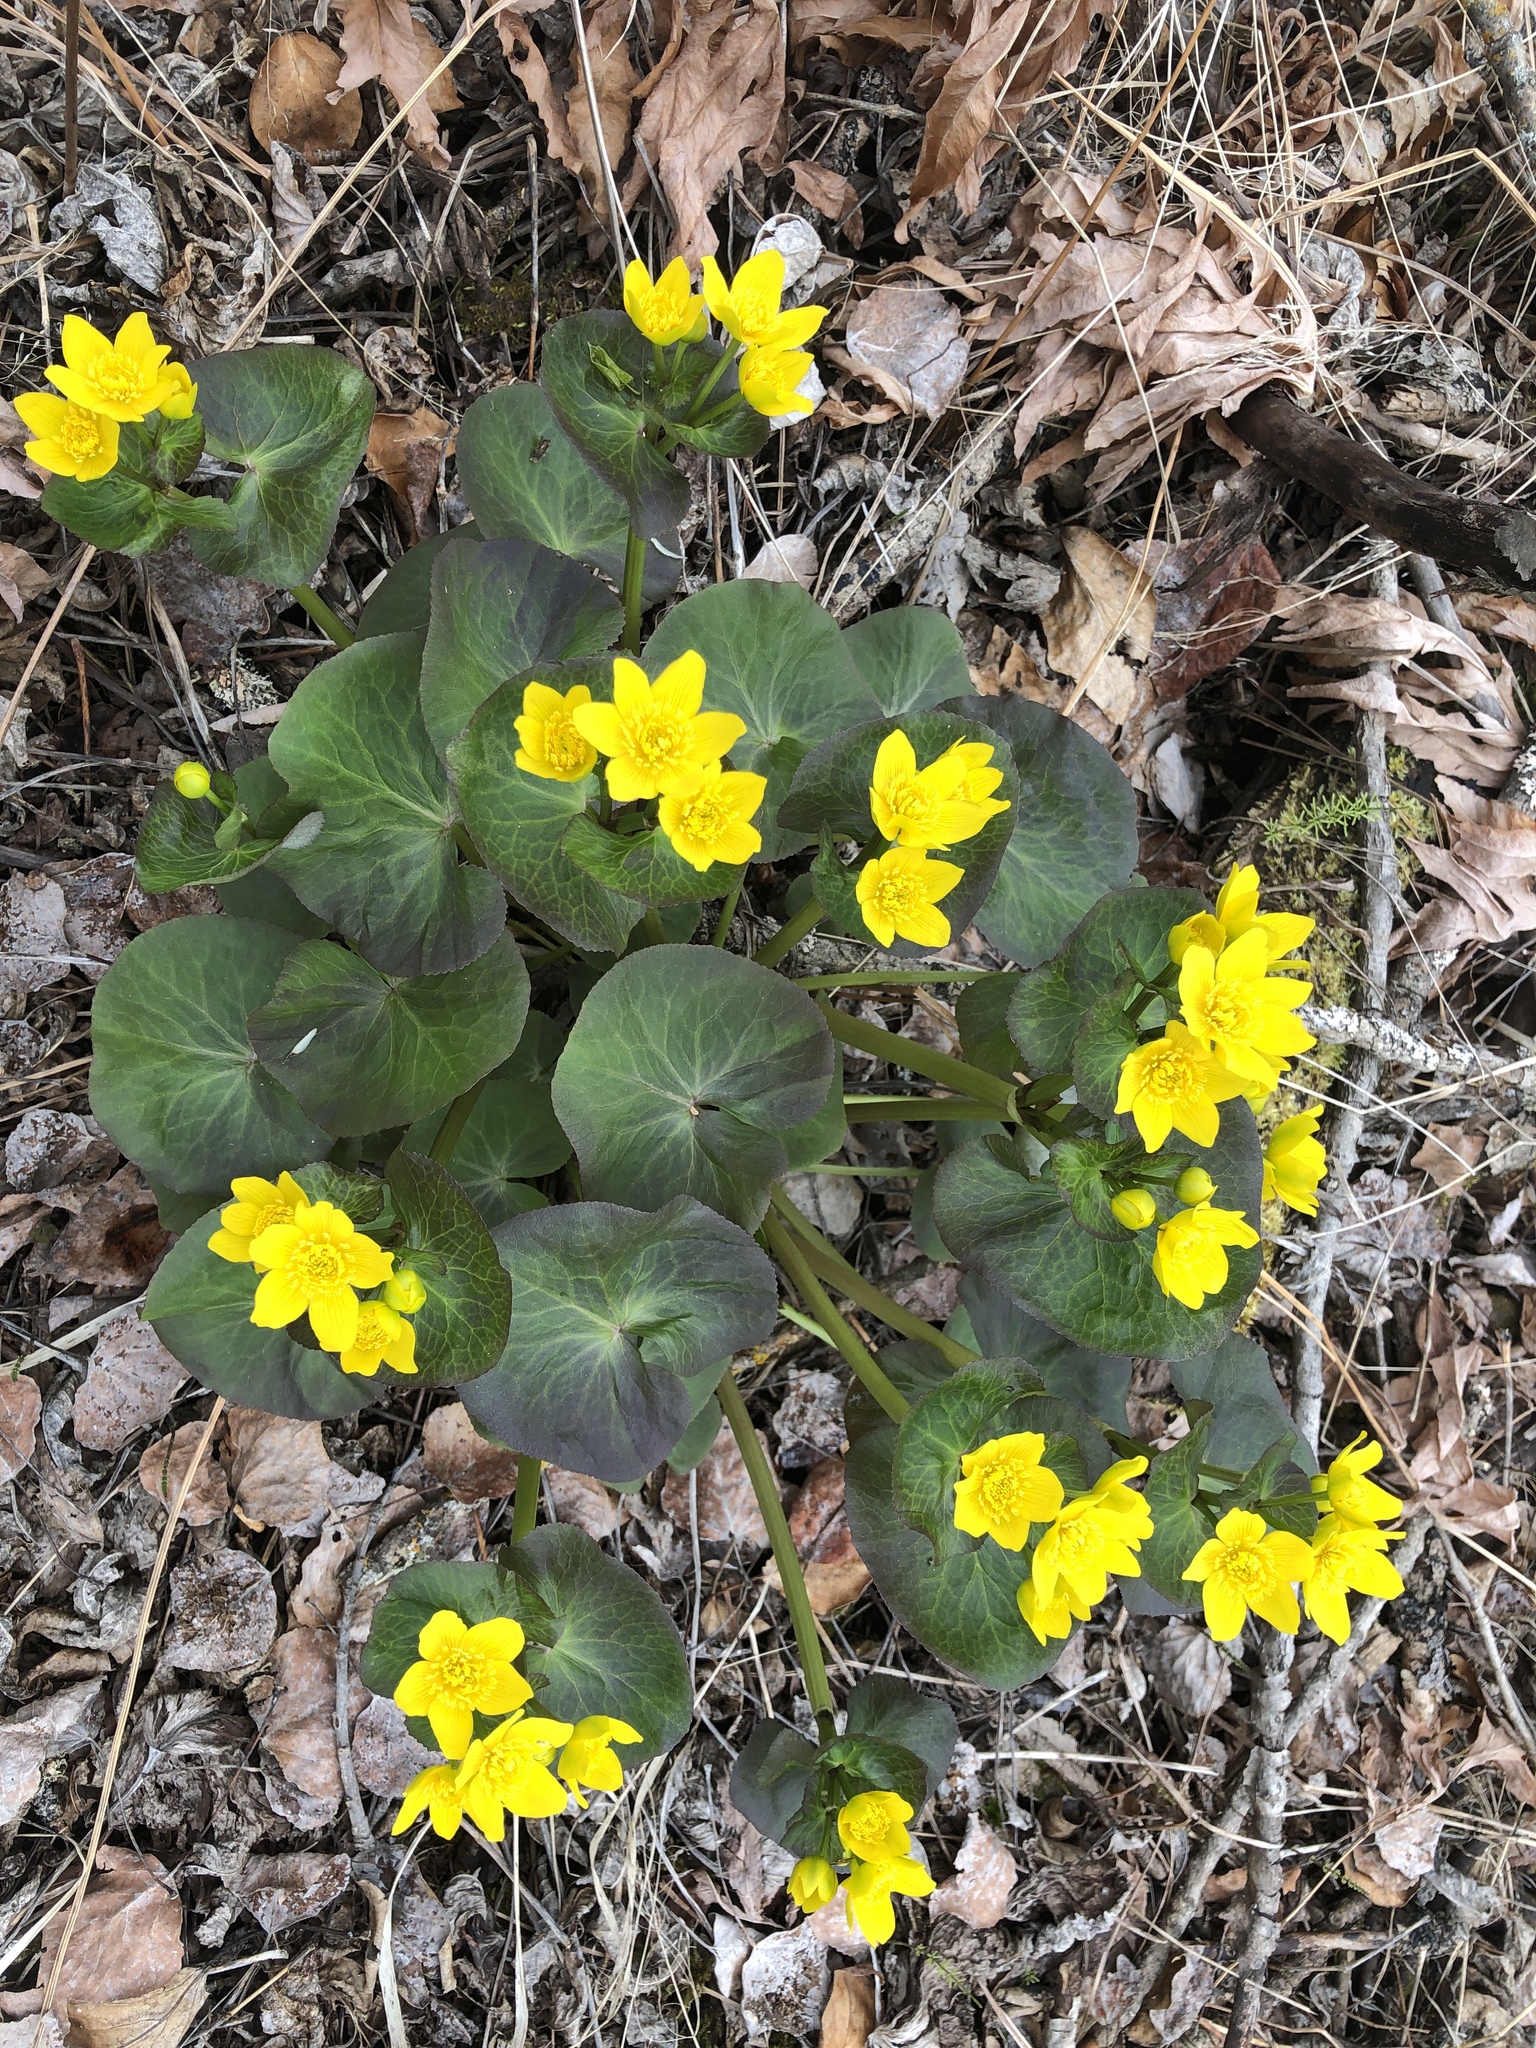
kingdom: Plantae
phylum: Tracheophyta
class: Magnoliopsida
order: Ranunculales
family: Ranunculaceae
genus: Caltha
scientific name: Caltha palustris
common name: Marsh marigold
